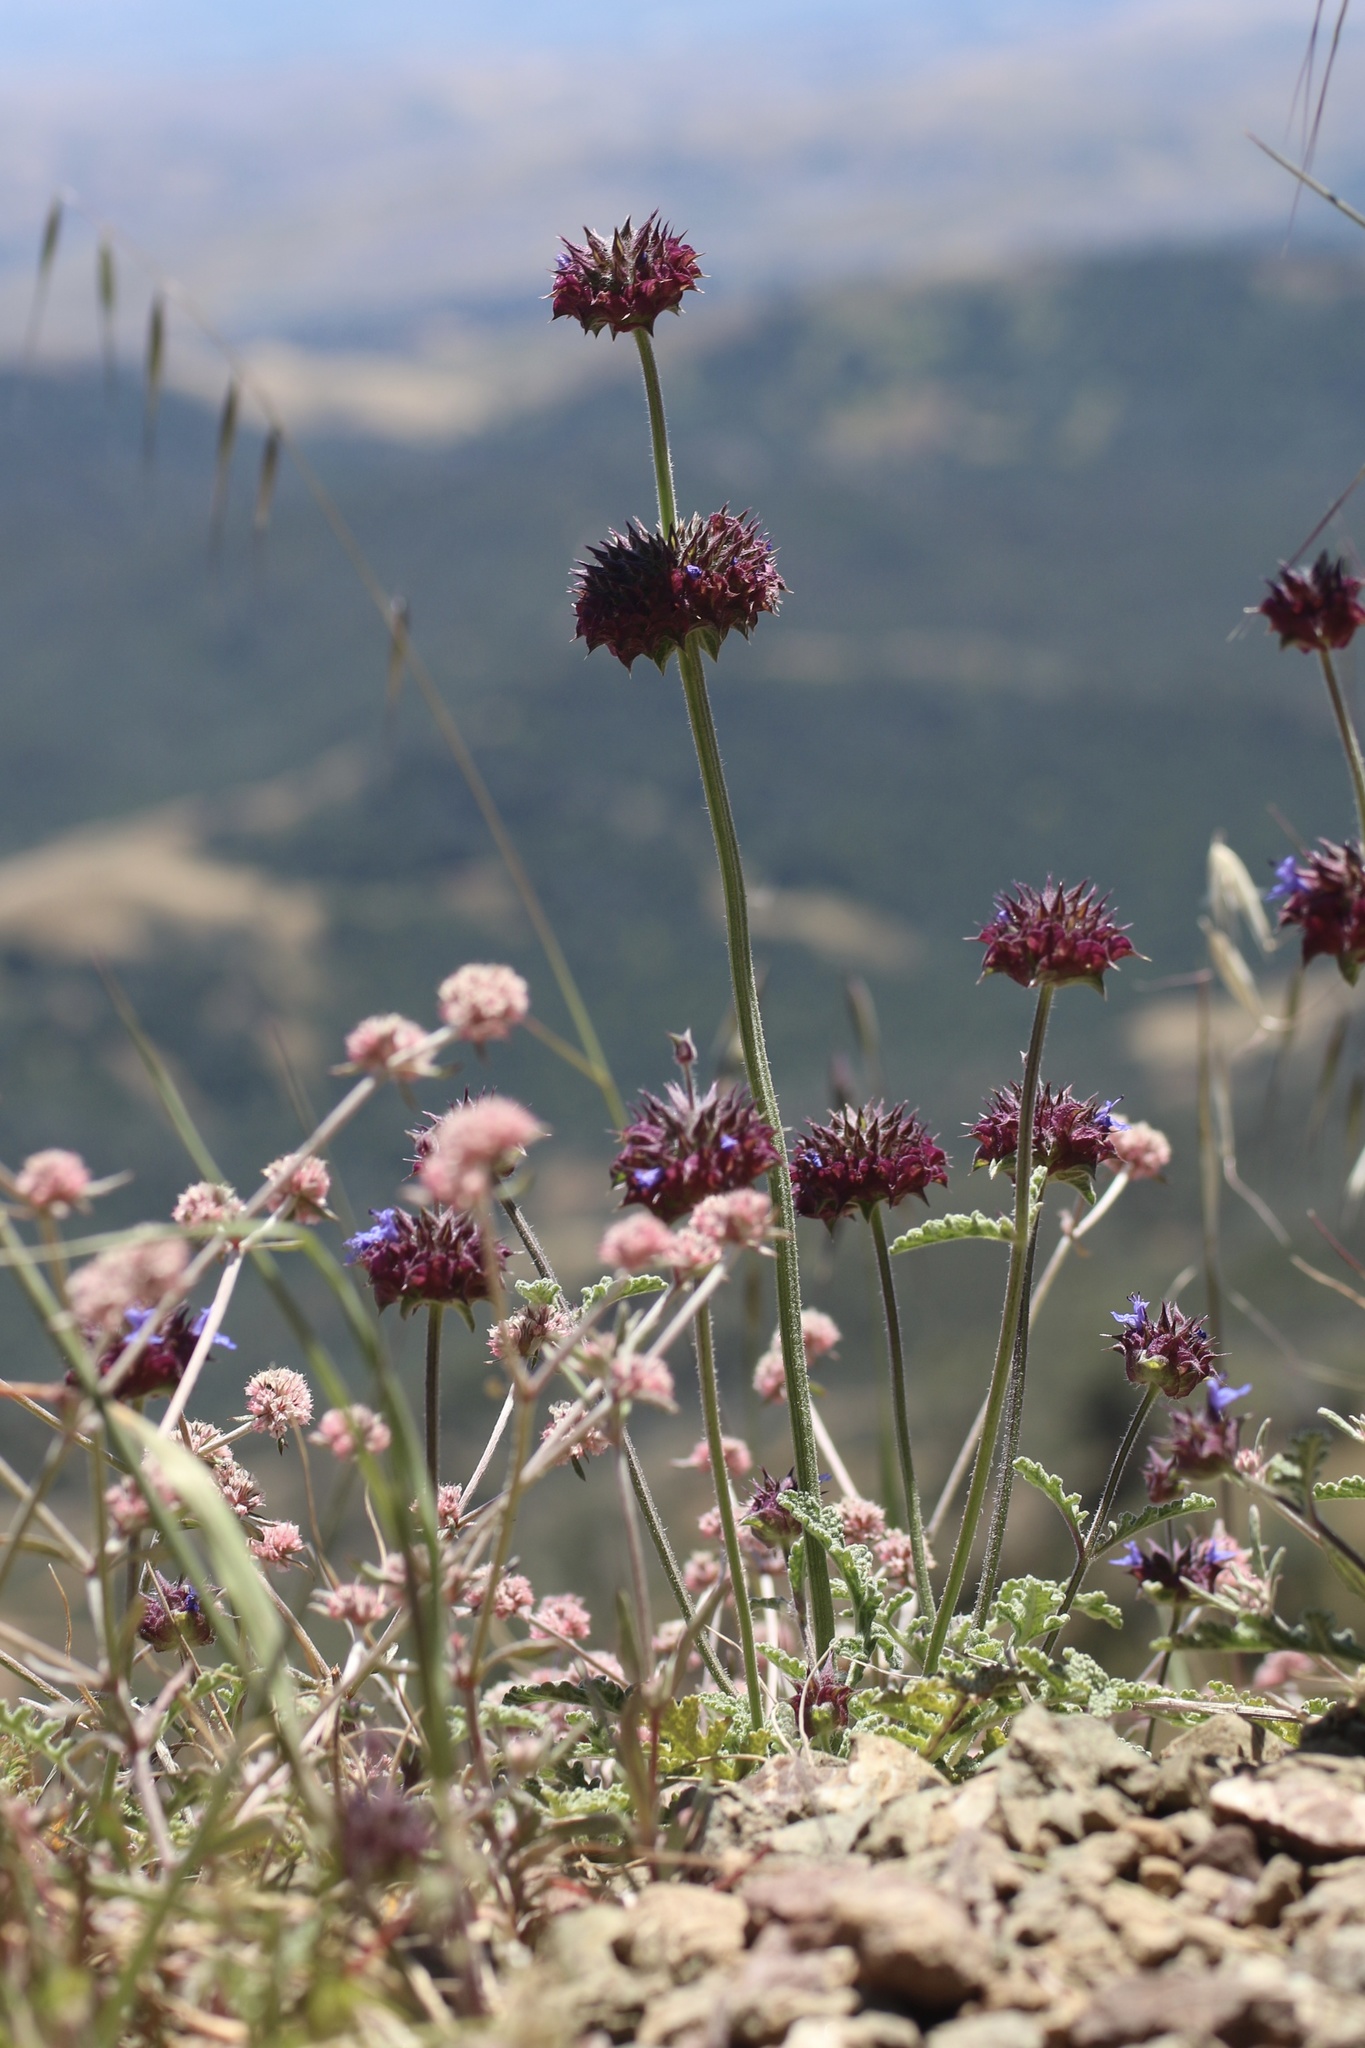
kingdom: Plantae
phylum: Tracheophyta
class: Magnoliopsida
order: Lamiales
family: Lamiaceae
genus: Salvia
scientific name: Salvia columbariae
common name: Chia
